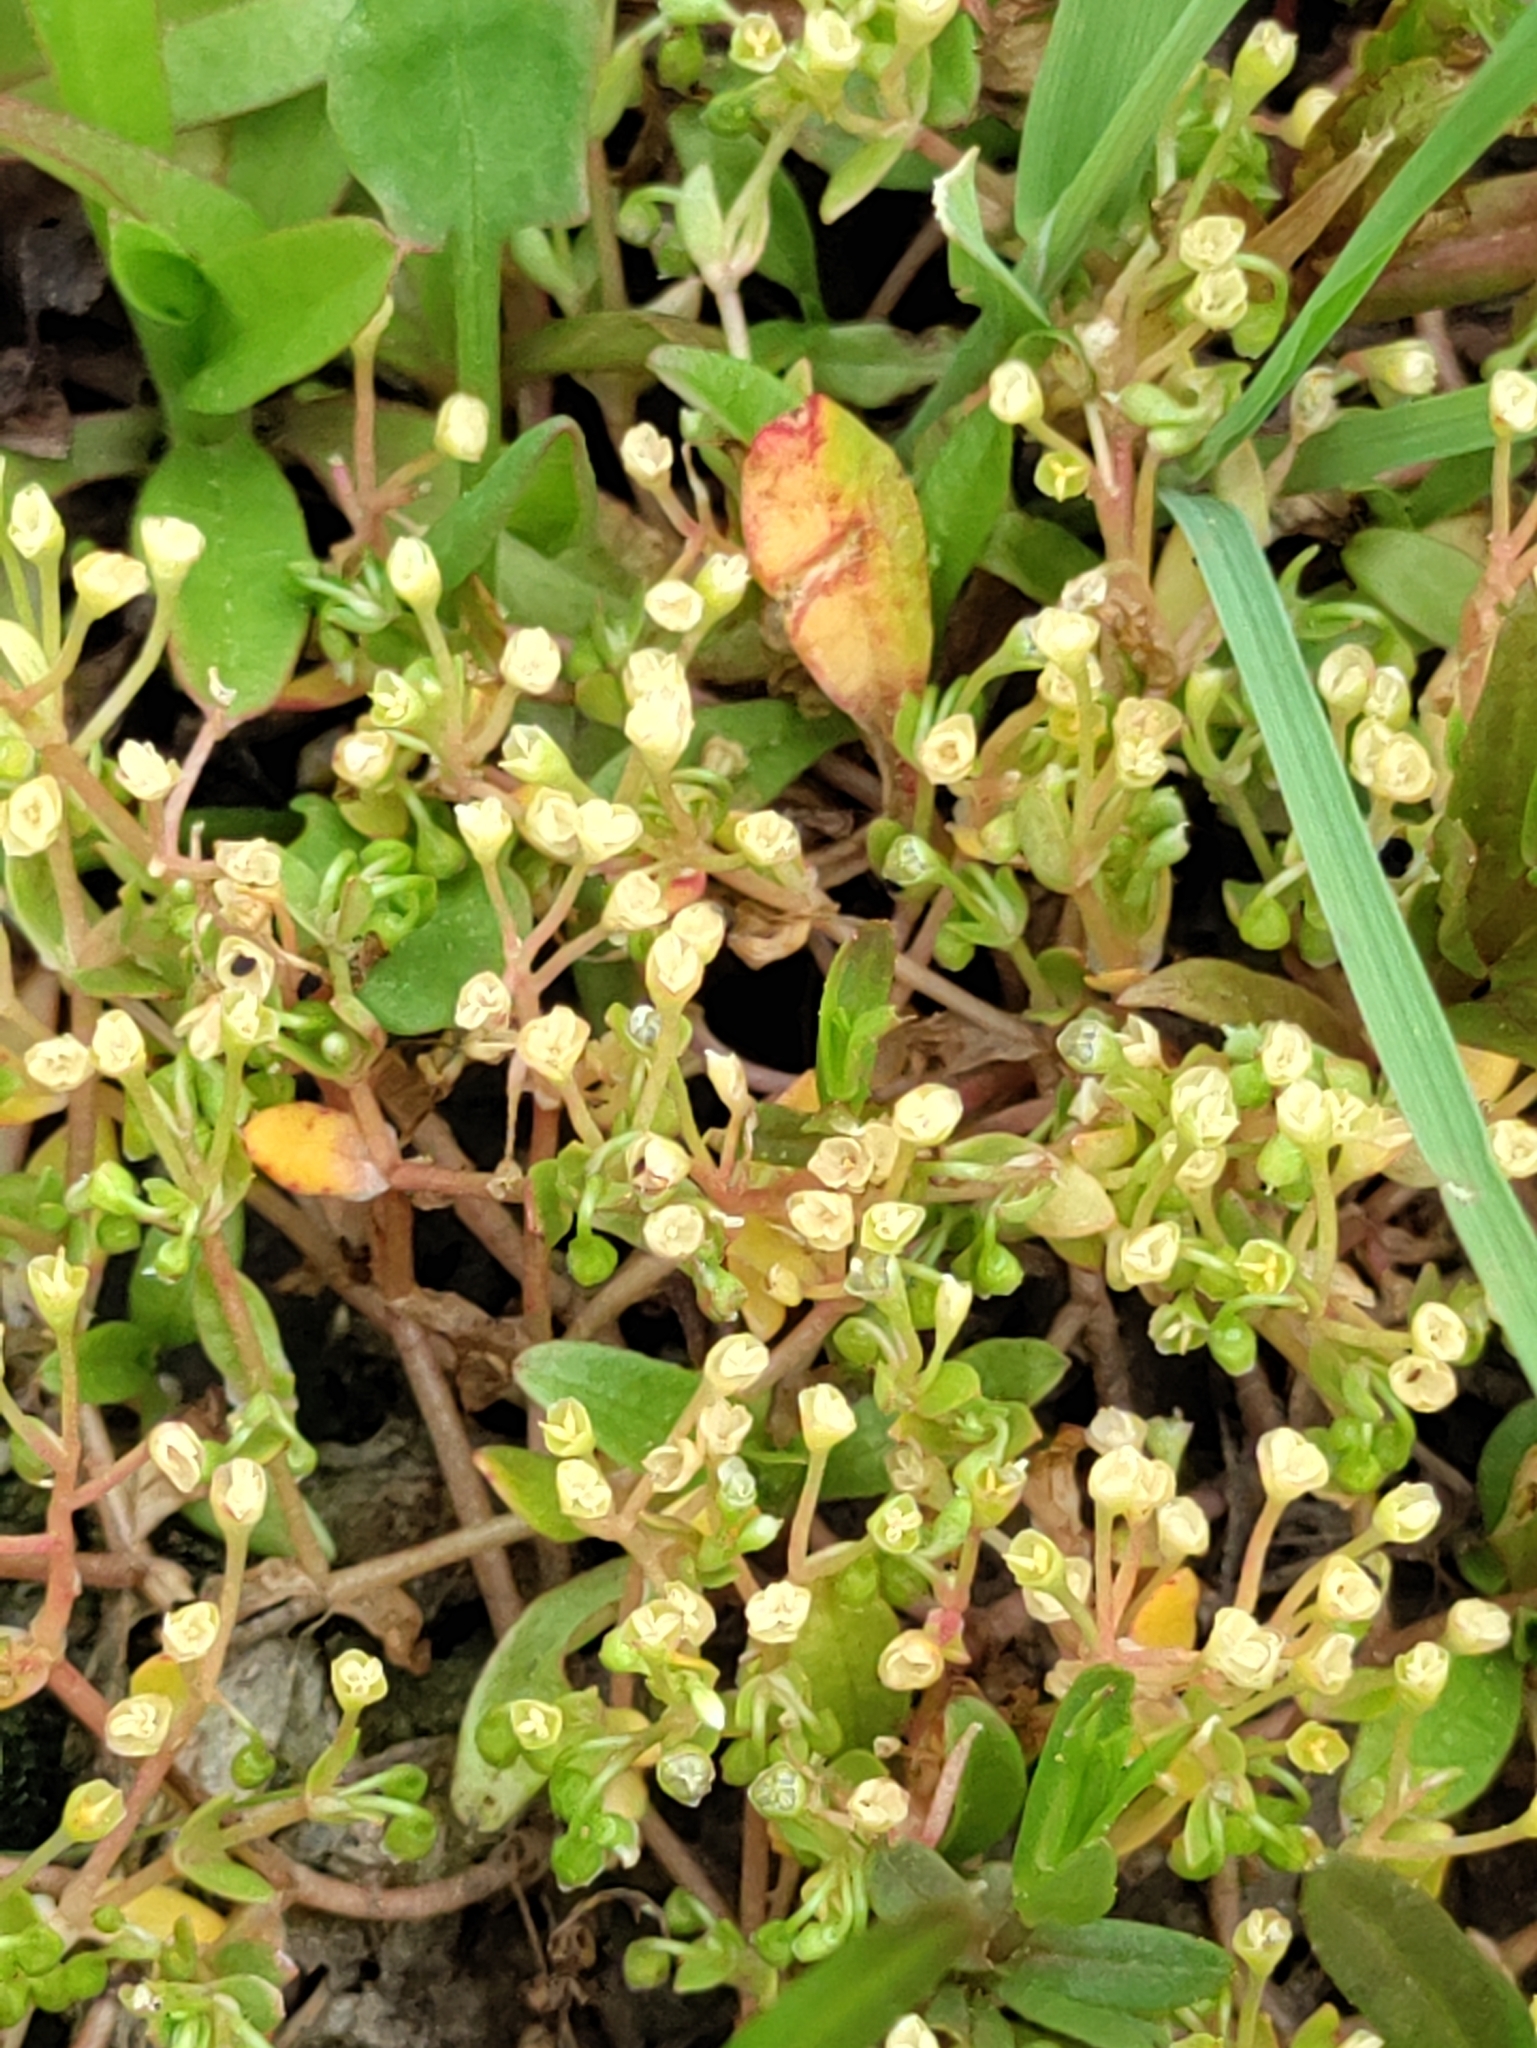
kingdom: Plantae
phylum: Tracheophyta
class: Magnoliopsida
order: Caryophyllales
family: Montiaceae
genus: Montia
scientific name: Montia fontana
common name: Blinks
